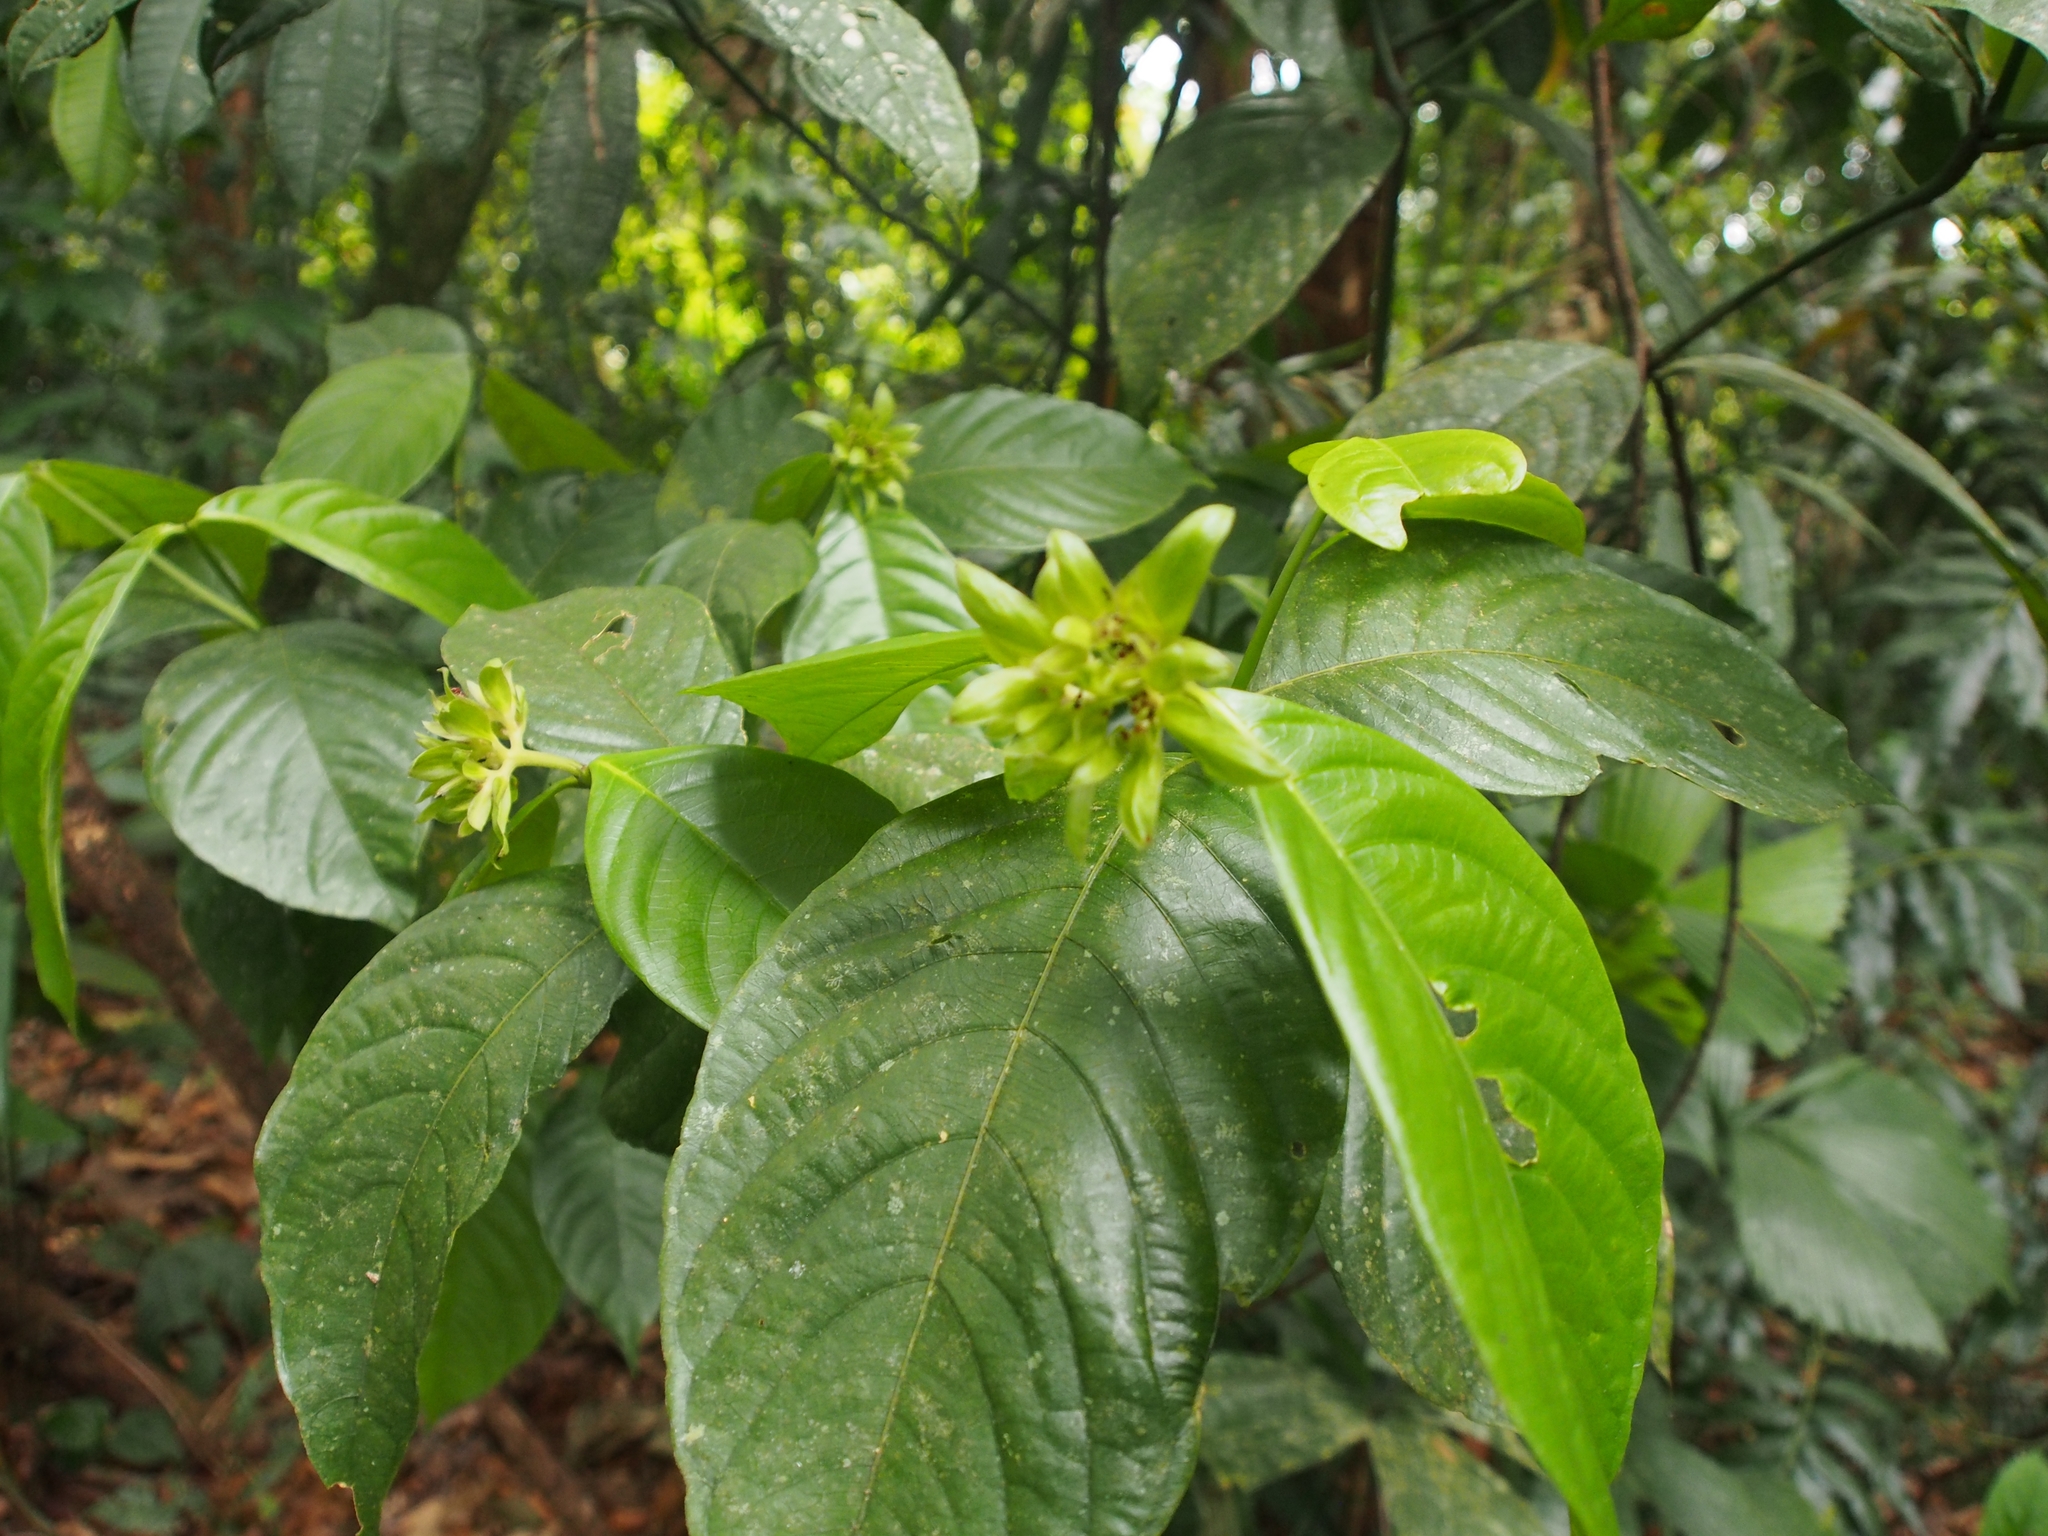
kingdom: Plantae
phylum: Tracheophyta
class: Magnoliopsida
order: Gentianales
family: Rubiaceae
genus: Palicourea
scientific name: Palicourea suerrensis
